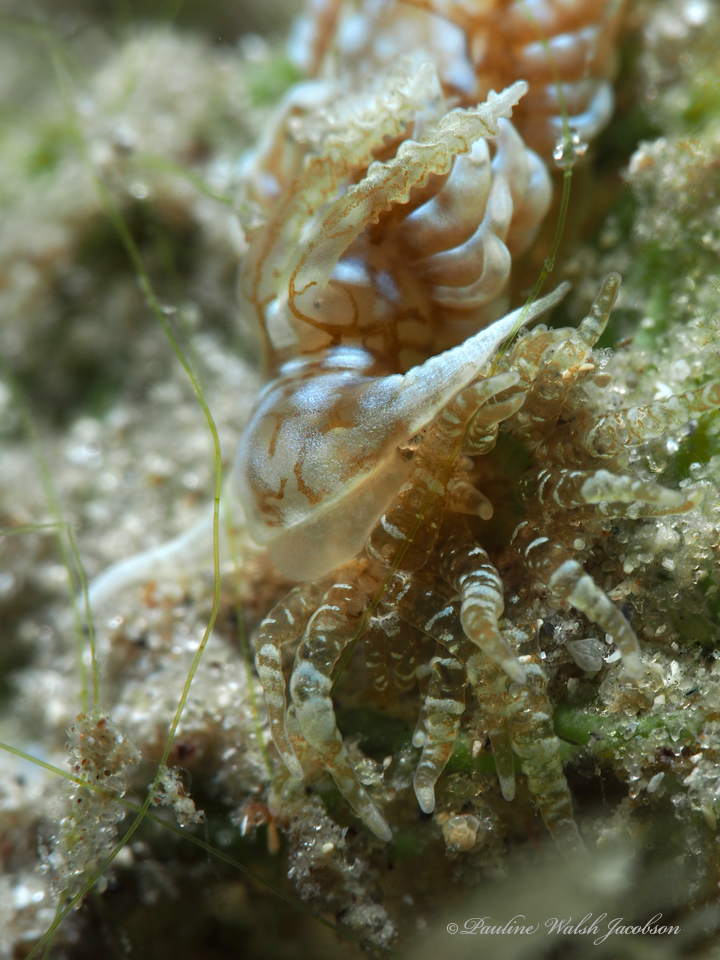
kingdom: Animalia
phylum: Mollusca
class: Gastropoda
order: Nudibranchia
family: Aeolidiidae
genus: Spurilla
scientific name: Spurilla dupontae
